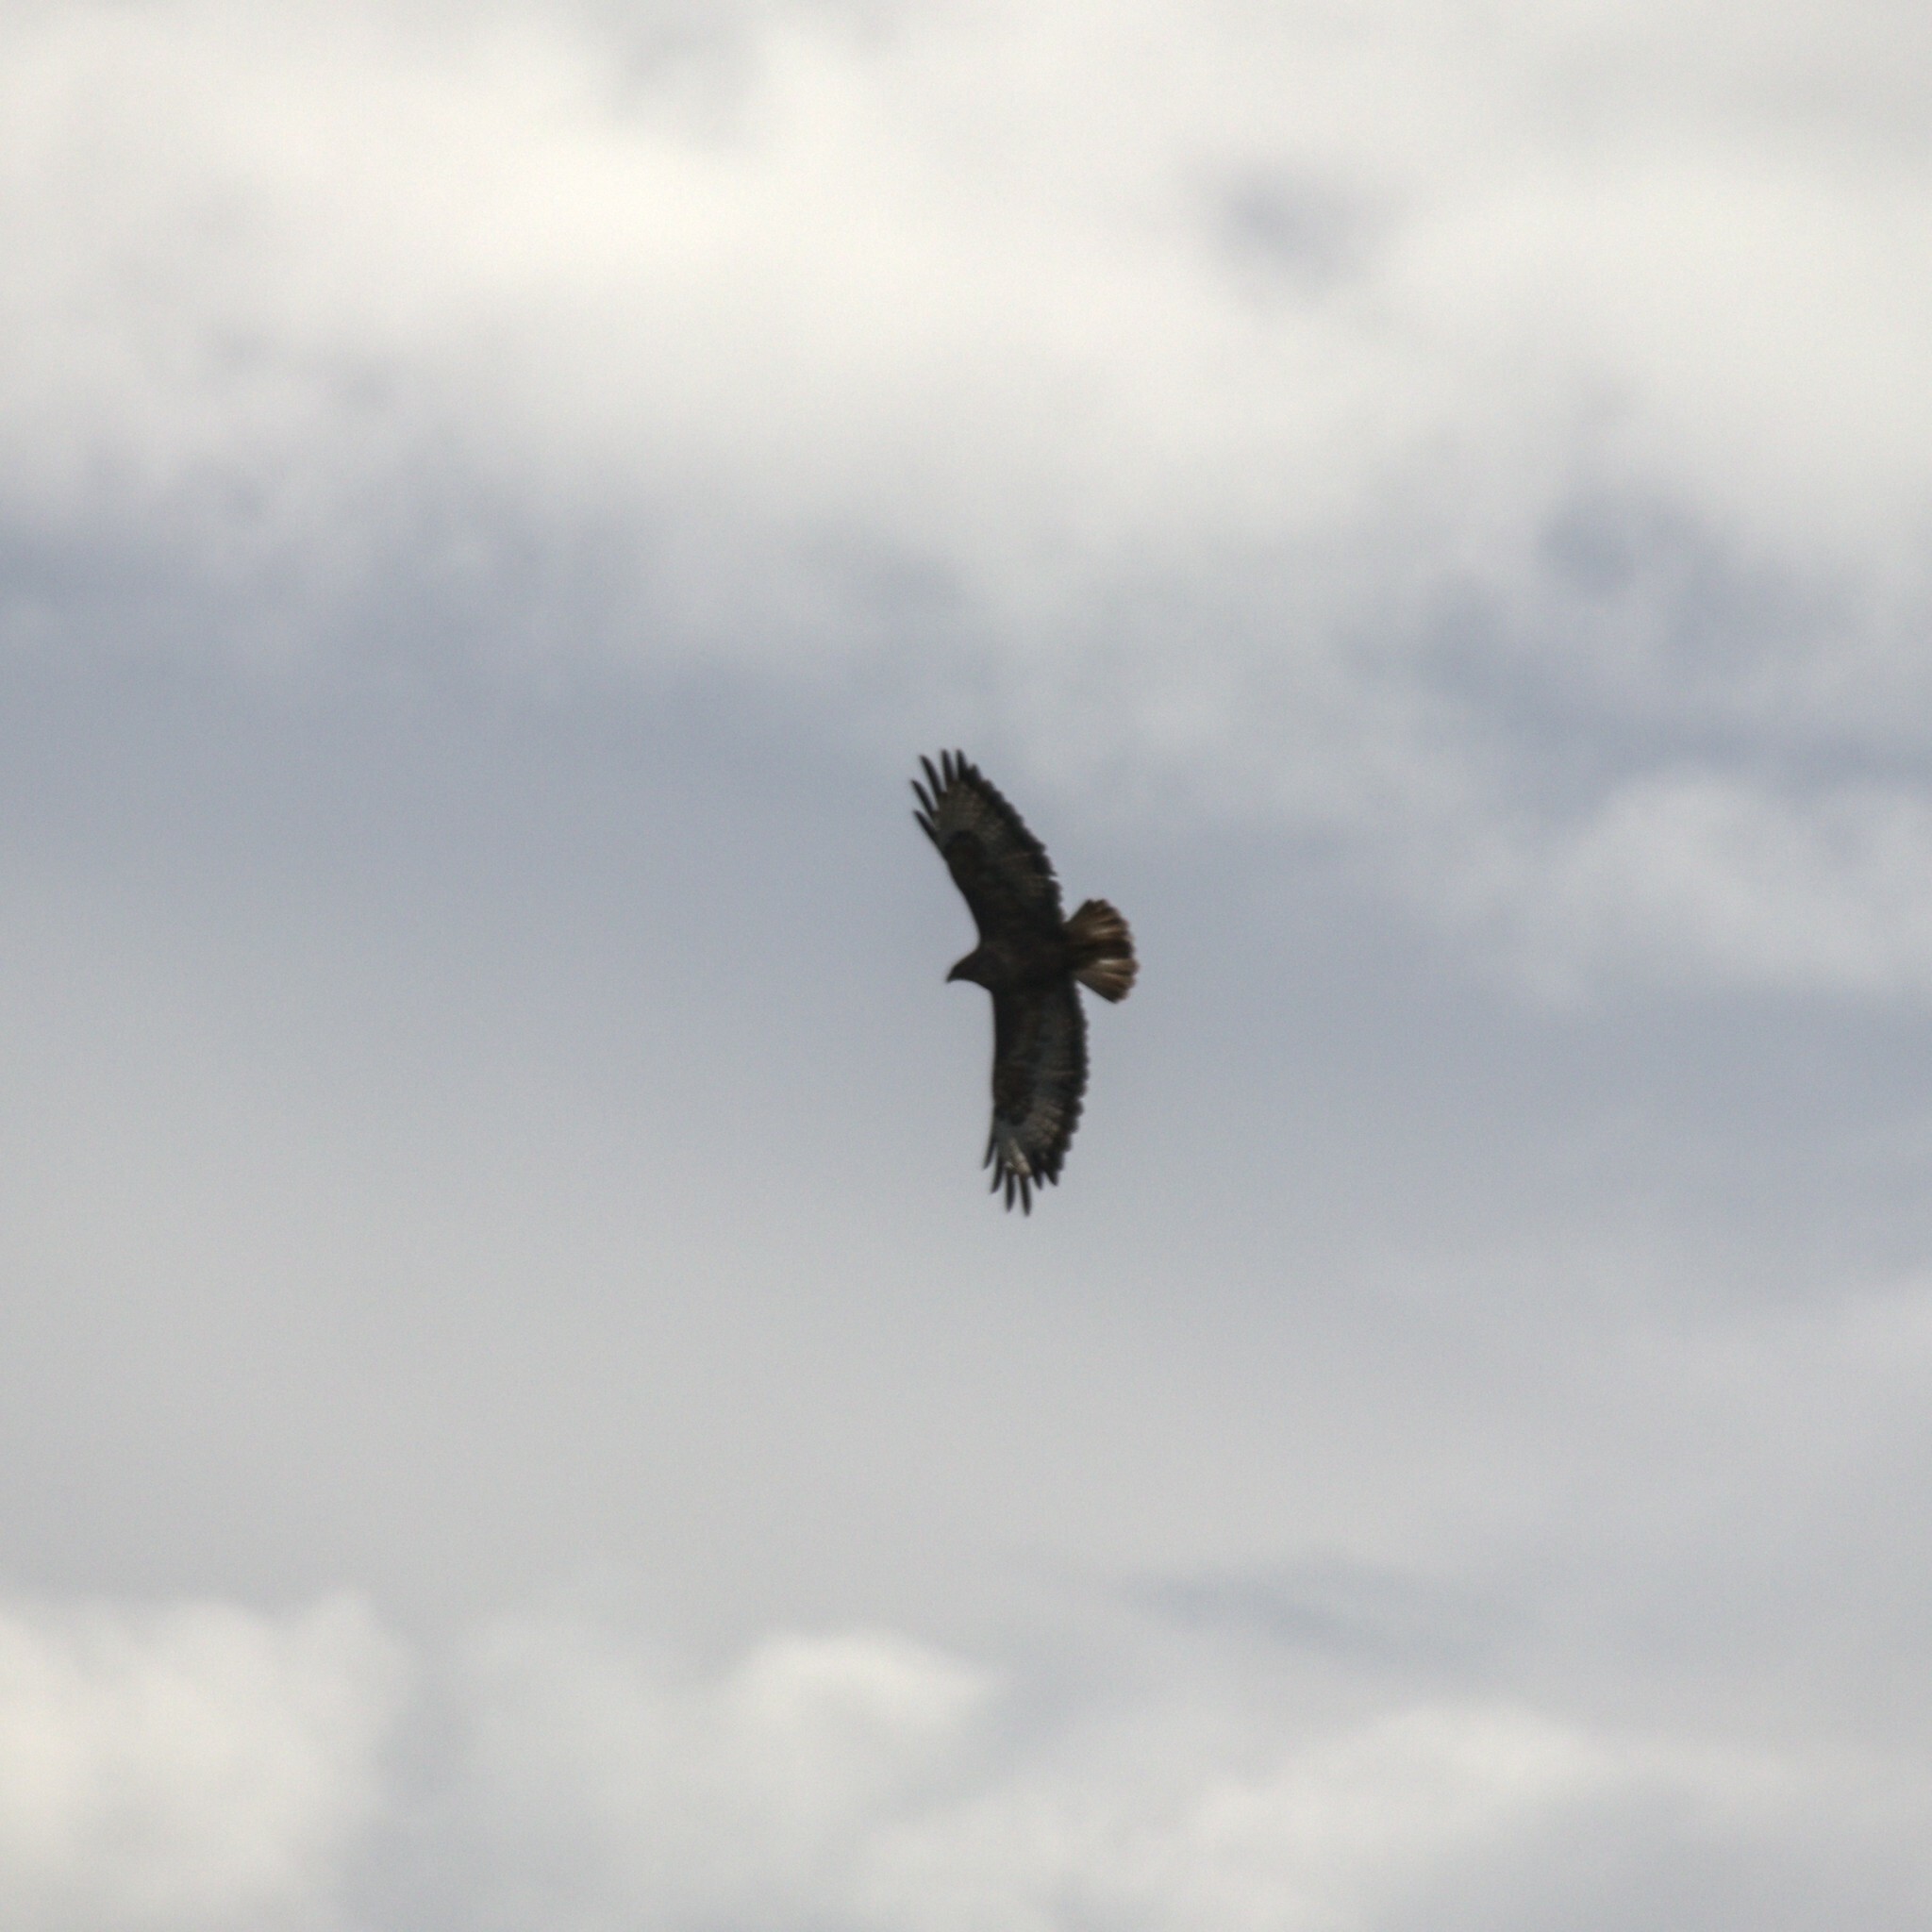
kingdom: Animalia
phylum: Chordata
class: Aves
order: Accipitriformes
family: Accipitridae
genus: Buteo
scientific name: Buteo buteo
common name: Common buzzard
